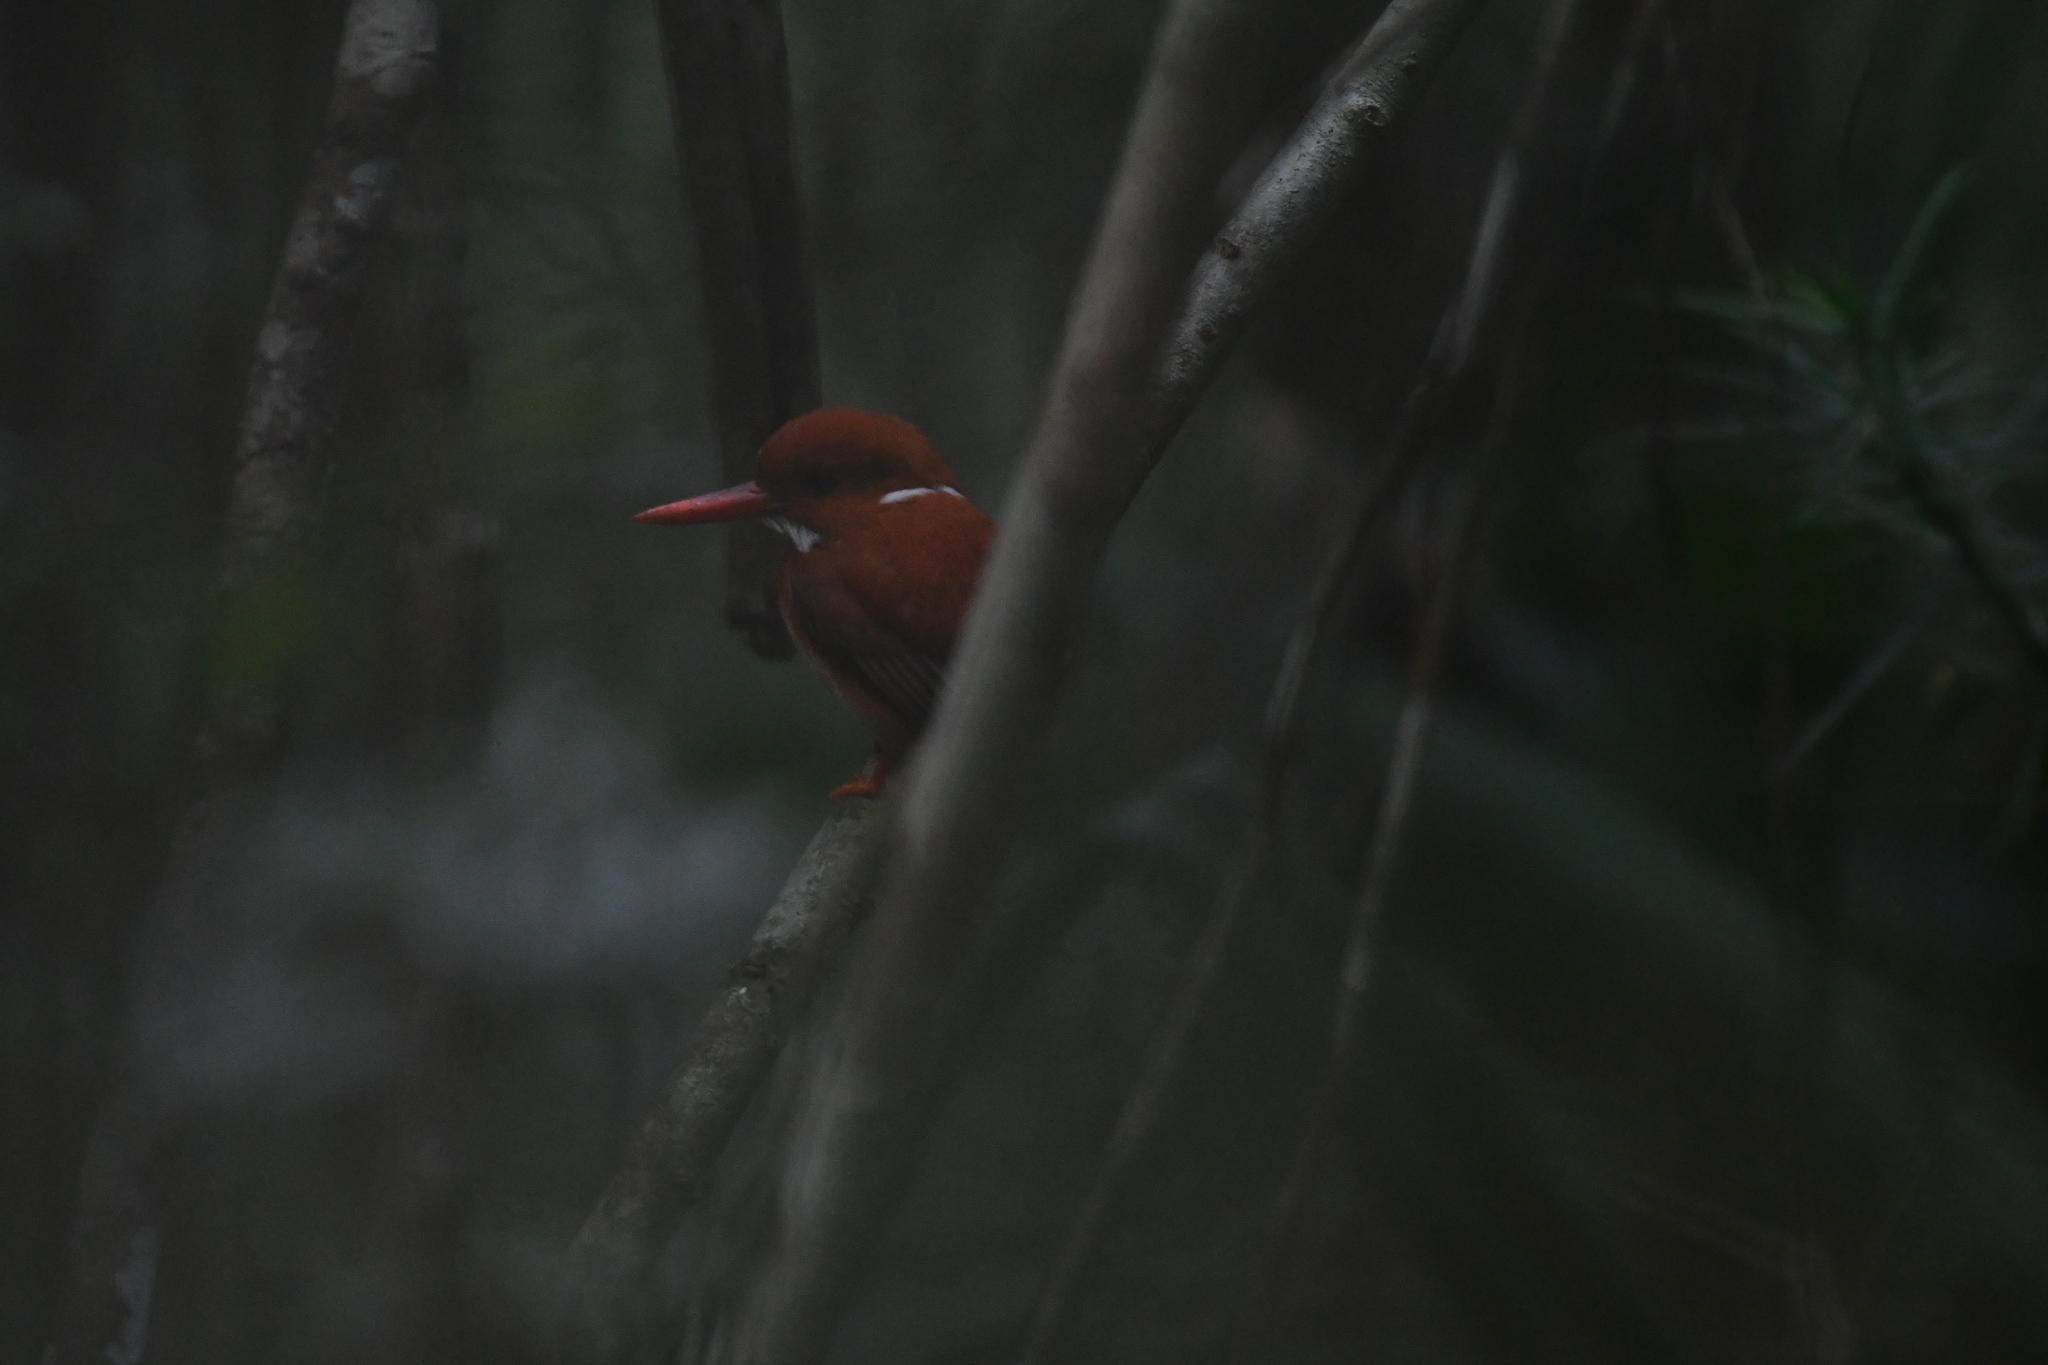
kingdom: Animalia
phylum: Chordata
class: Aves
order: Coraciiformes
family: Alcedinidae
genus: Corythornis
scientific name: Corythornis madagascariensis
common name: Madagascar pygmy-kingfisher
